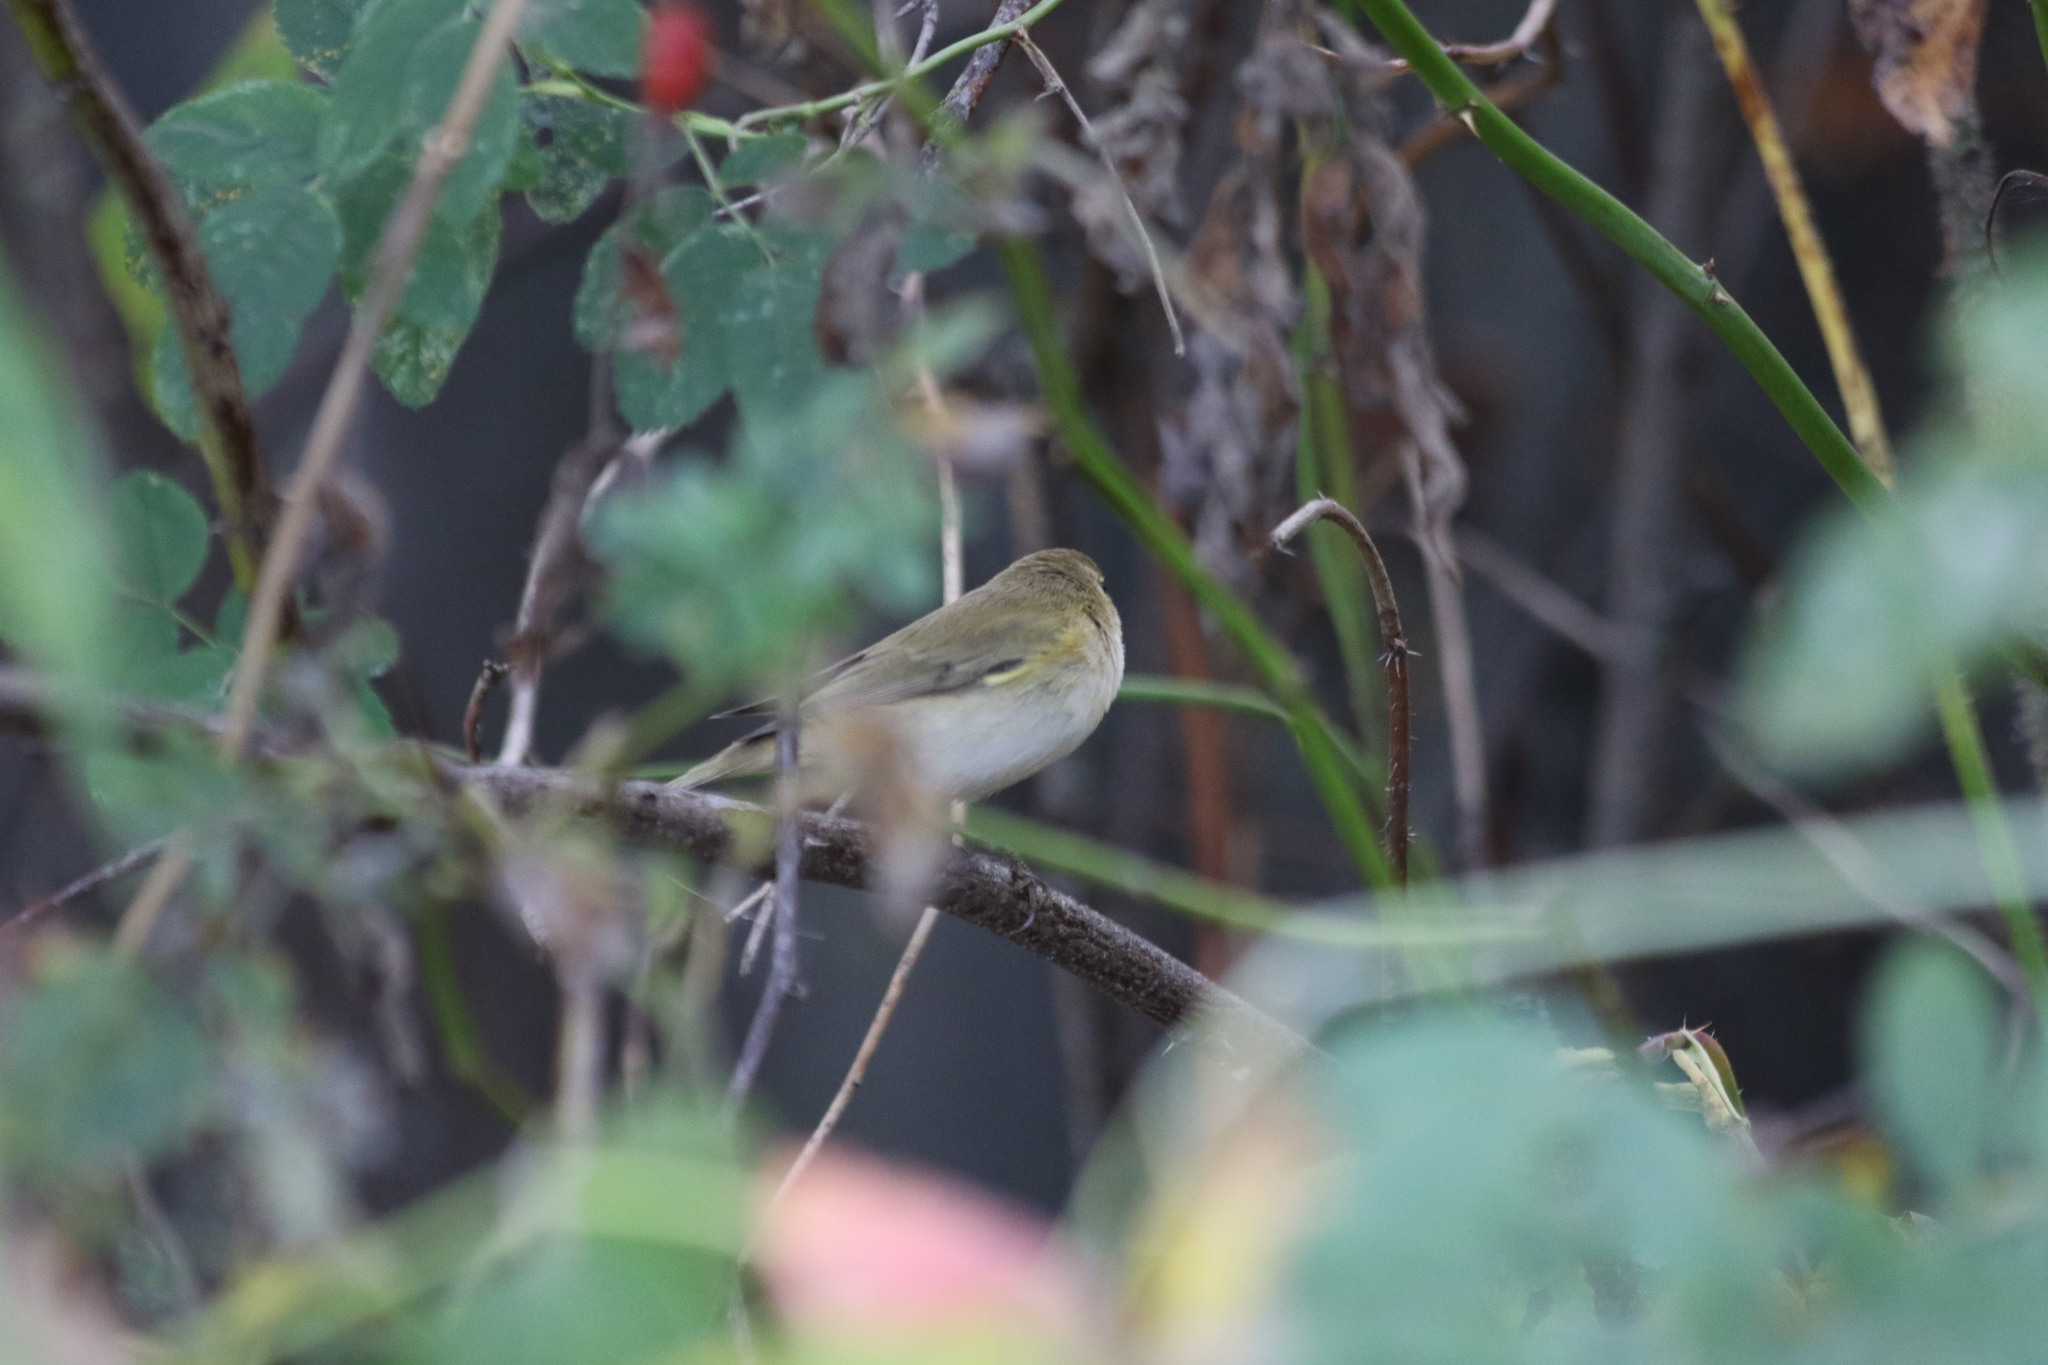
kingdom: Animalia
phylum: Chordata
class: Aves
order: Passeriformes
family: Phylloscopidae
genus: Phylloscopus
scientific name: Phylloscopus collybita
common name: Common chiffchaff
